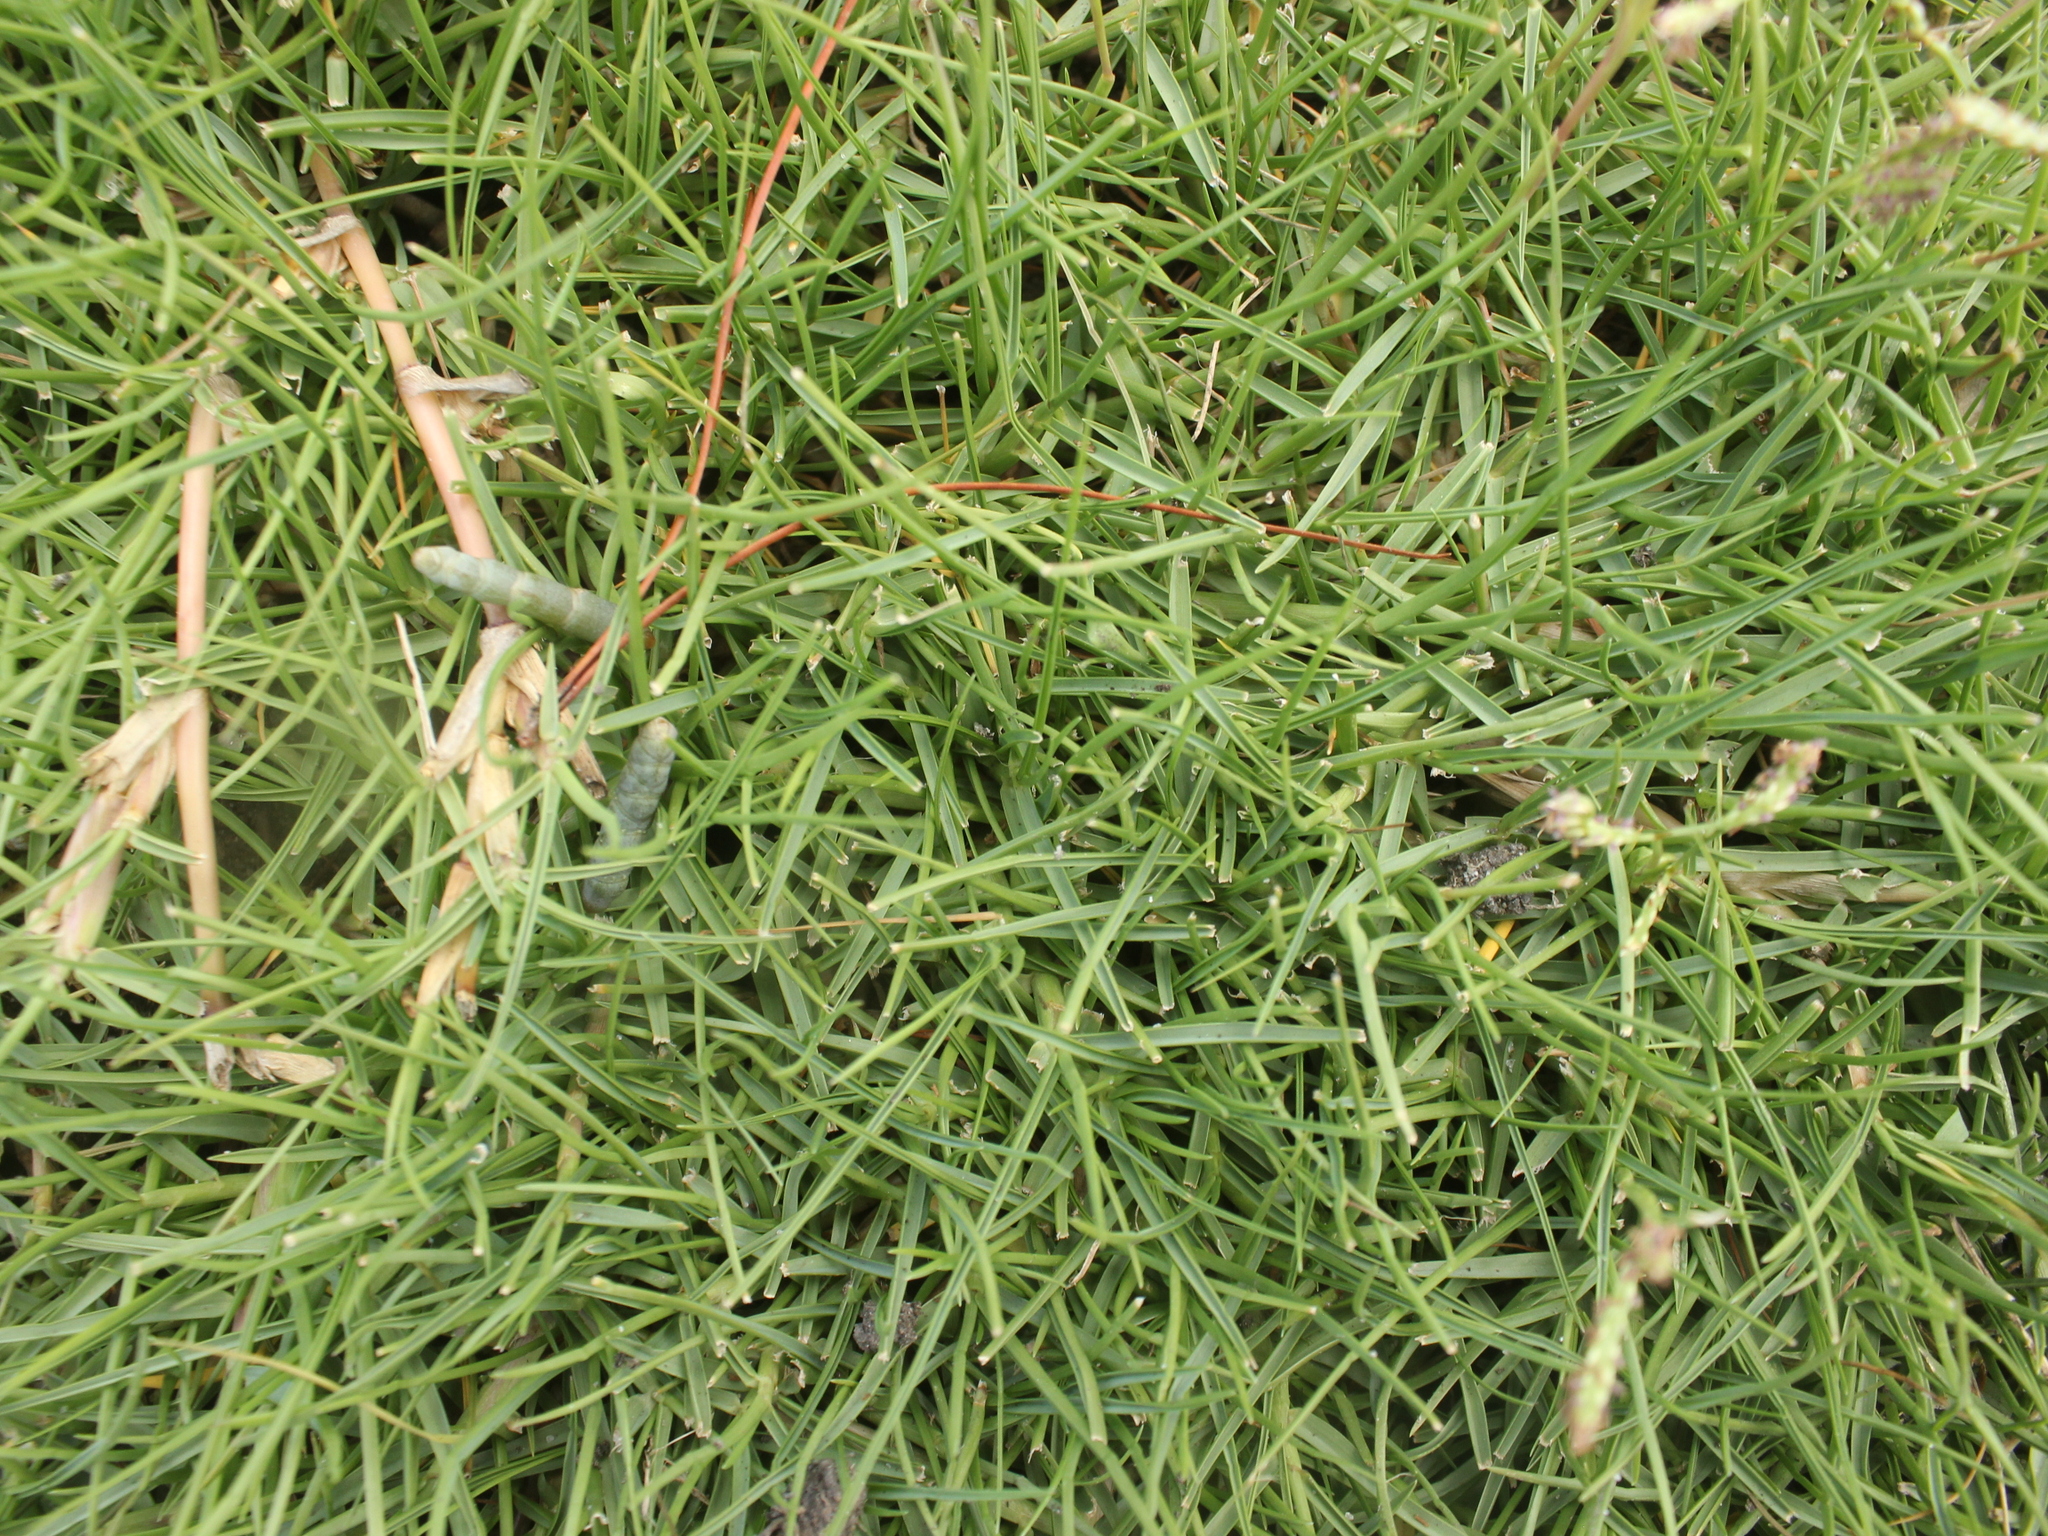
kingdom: Plantae
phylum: Tracheophyta
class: Liliopsida
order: Poales
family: Poaceae
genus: Paspalum
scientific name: Paspalum vaginatum
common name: Seashore paspalum
